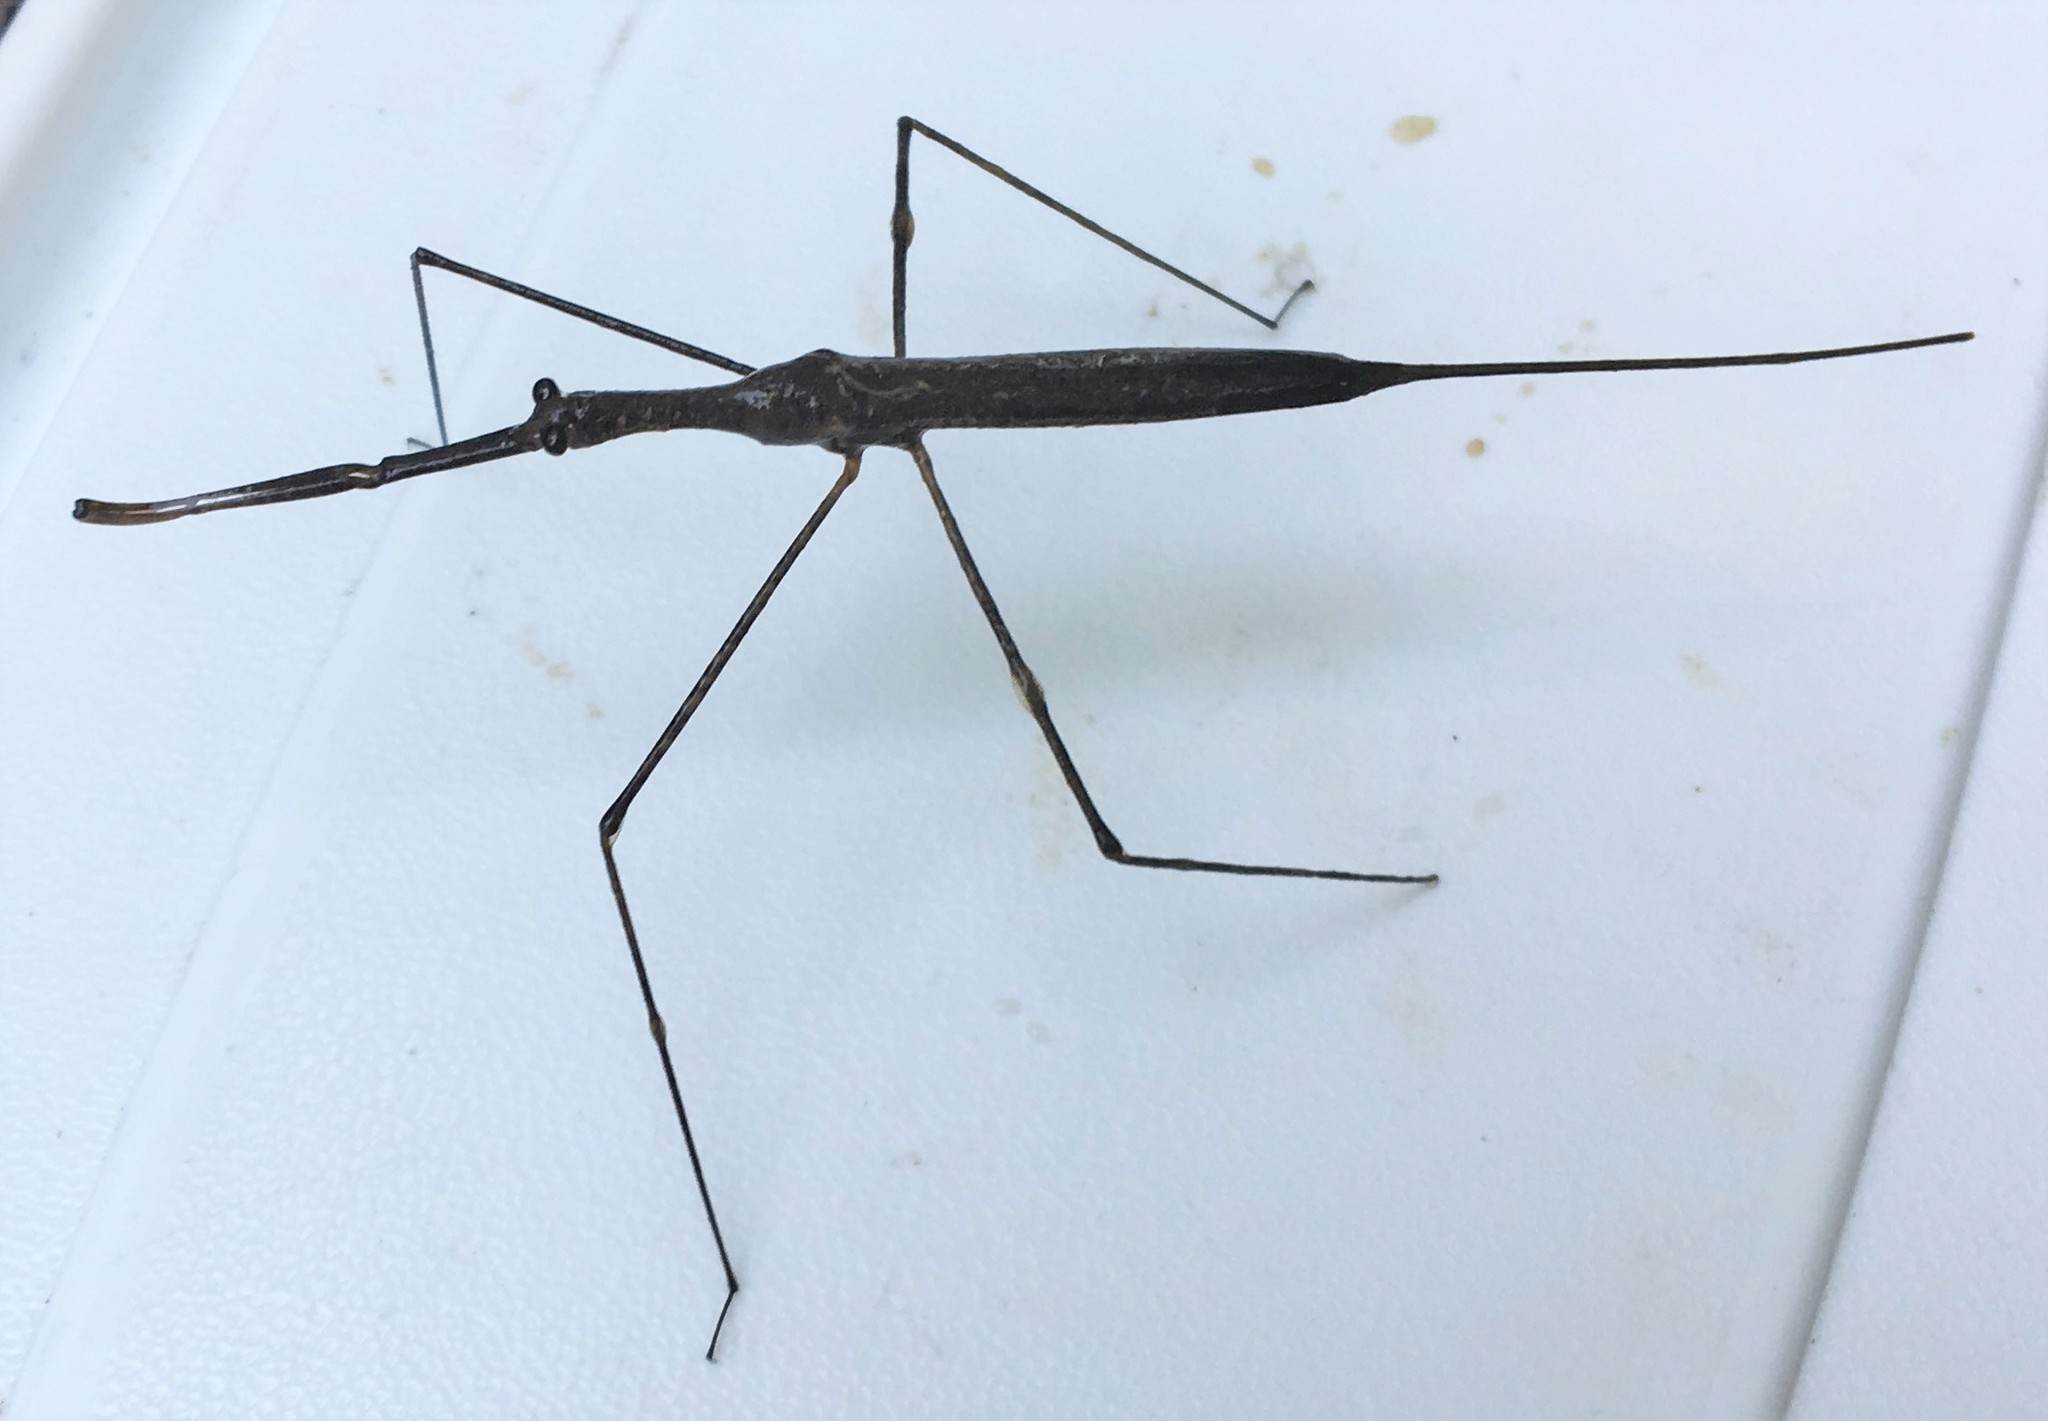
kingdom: Animalia
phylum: Arthropoda
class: Insecta
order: Hemiptera
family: Nepidae
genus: Ranatra
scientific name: Ranatra
